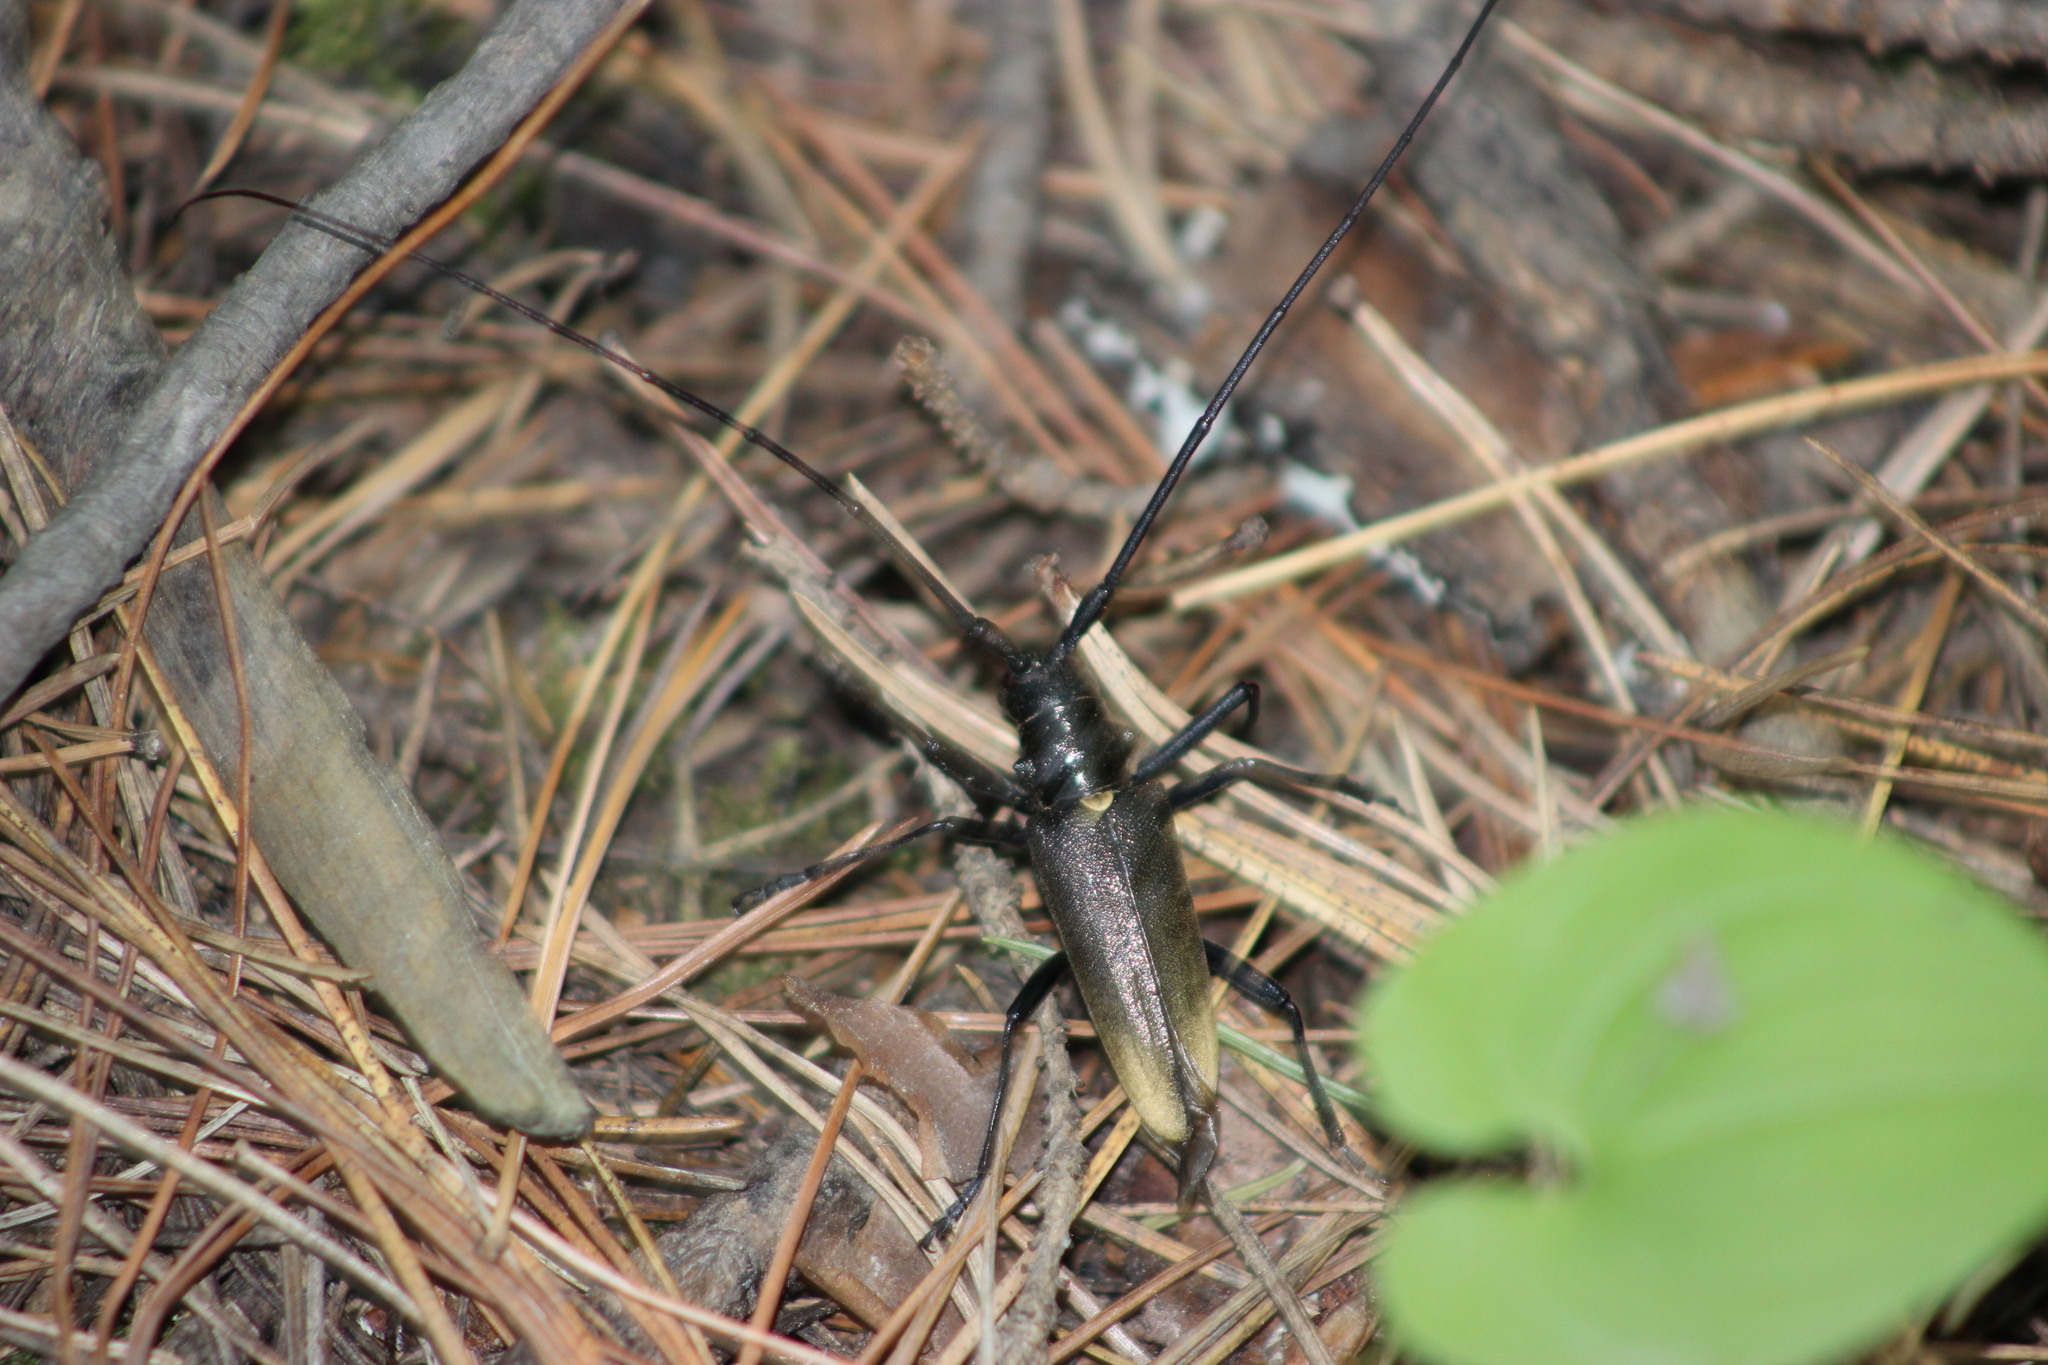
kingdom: Animalia
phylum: Arthropoda
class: Insecta
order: Coleoptera
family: Cerambycidae
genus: Monochamus
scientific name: Monochamus urussovii
